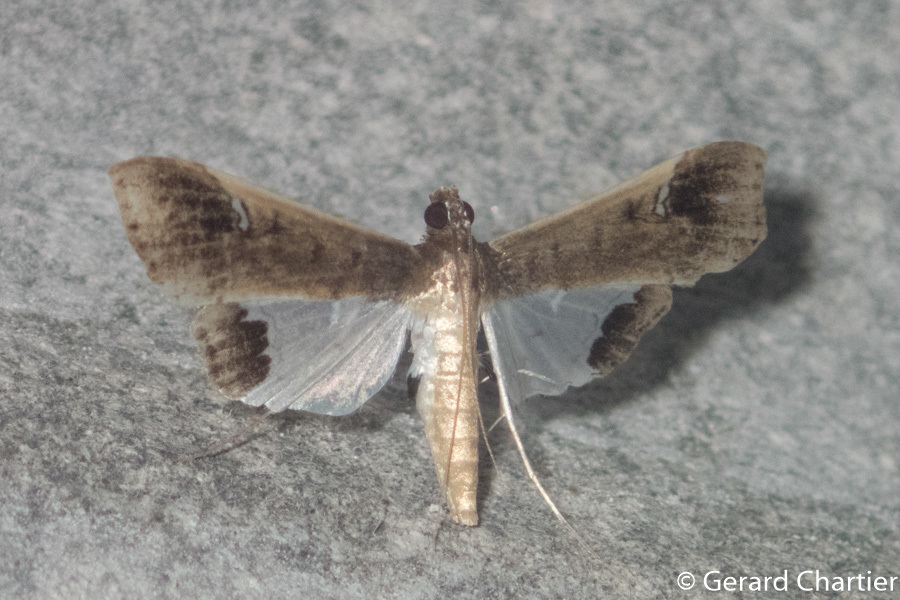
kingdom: Animalia
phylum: Arthropoda
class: Insecta
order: Lepidoptera
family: Crambidae
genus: Maruca
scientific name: Maruca amboinalis
